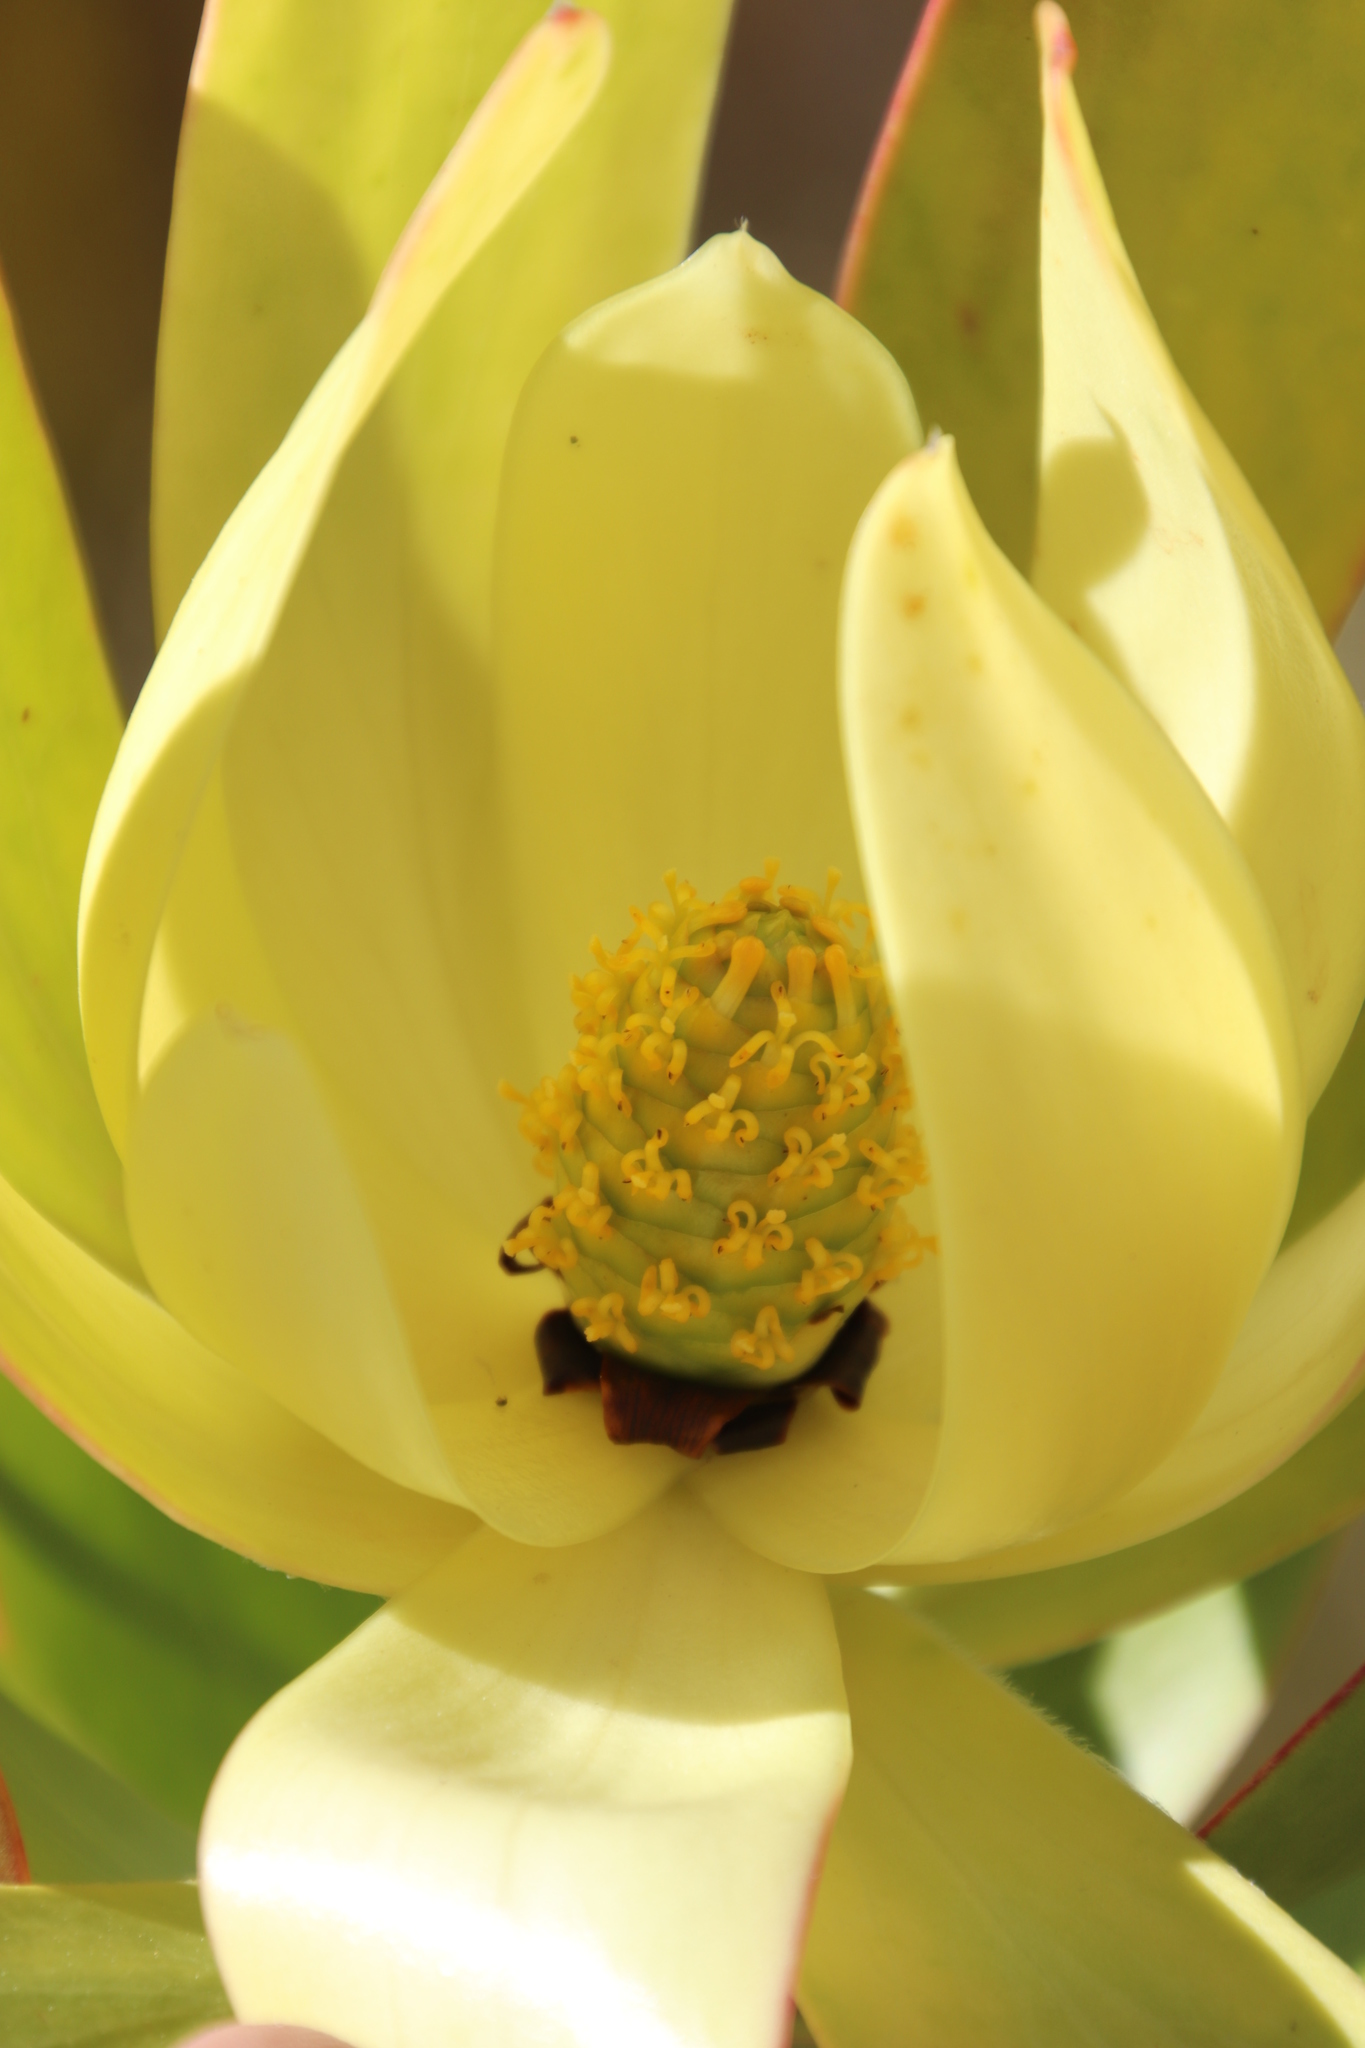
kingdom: Plantae
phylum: Tracheophyta
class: Magnoliopsida
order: Proteales
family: Proteaceae
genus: Leucadendron
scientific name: Leucadendron
